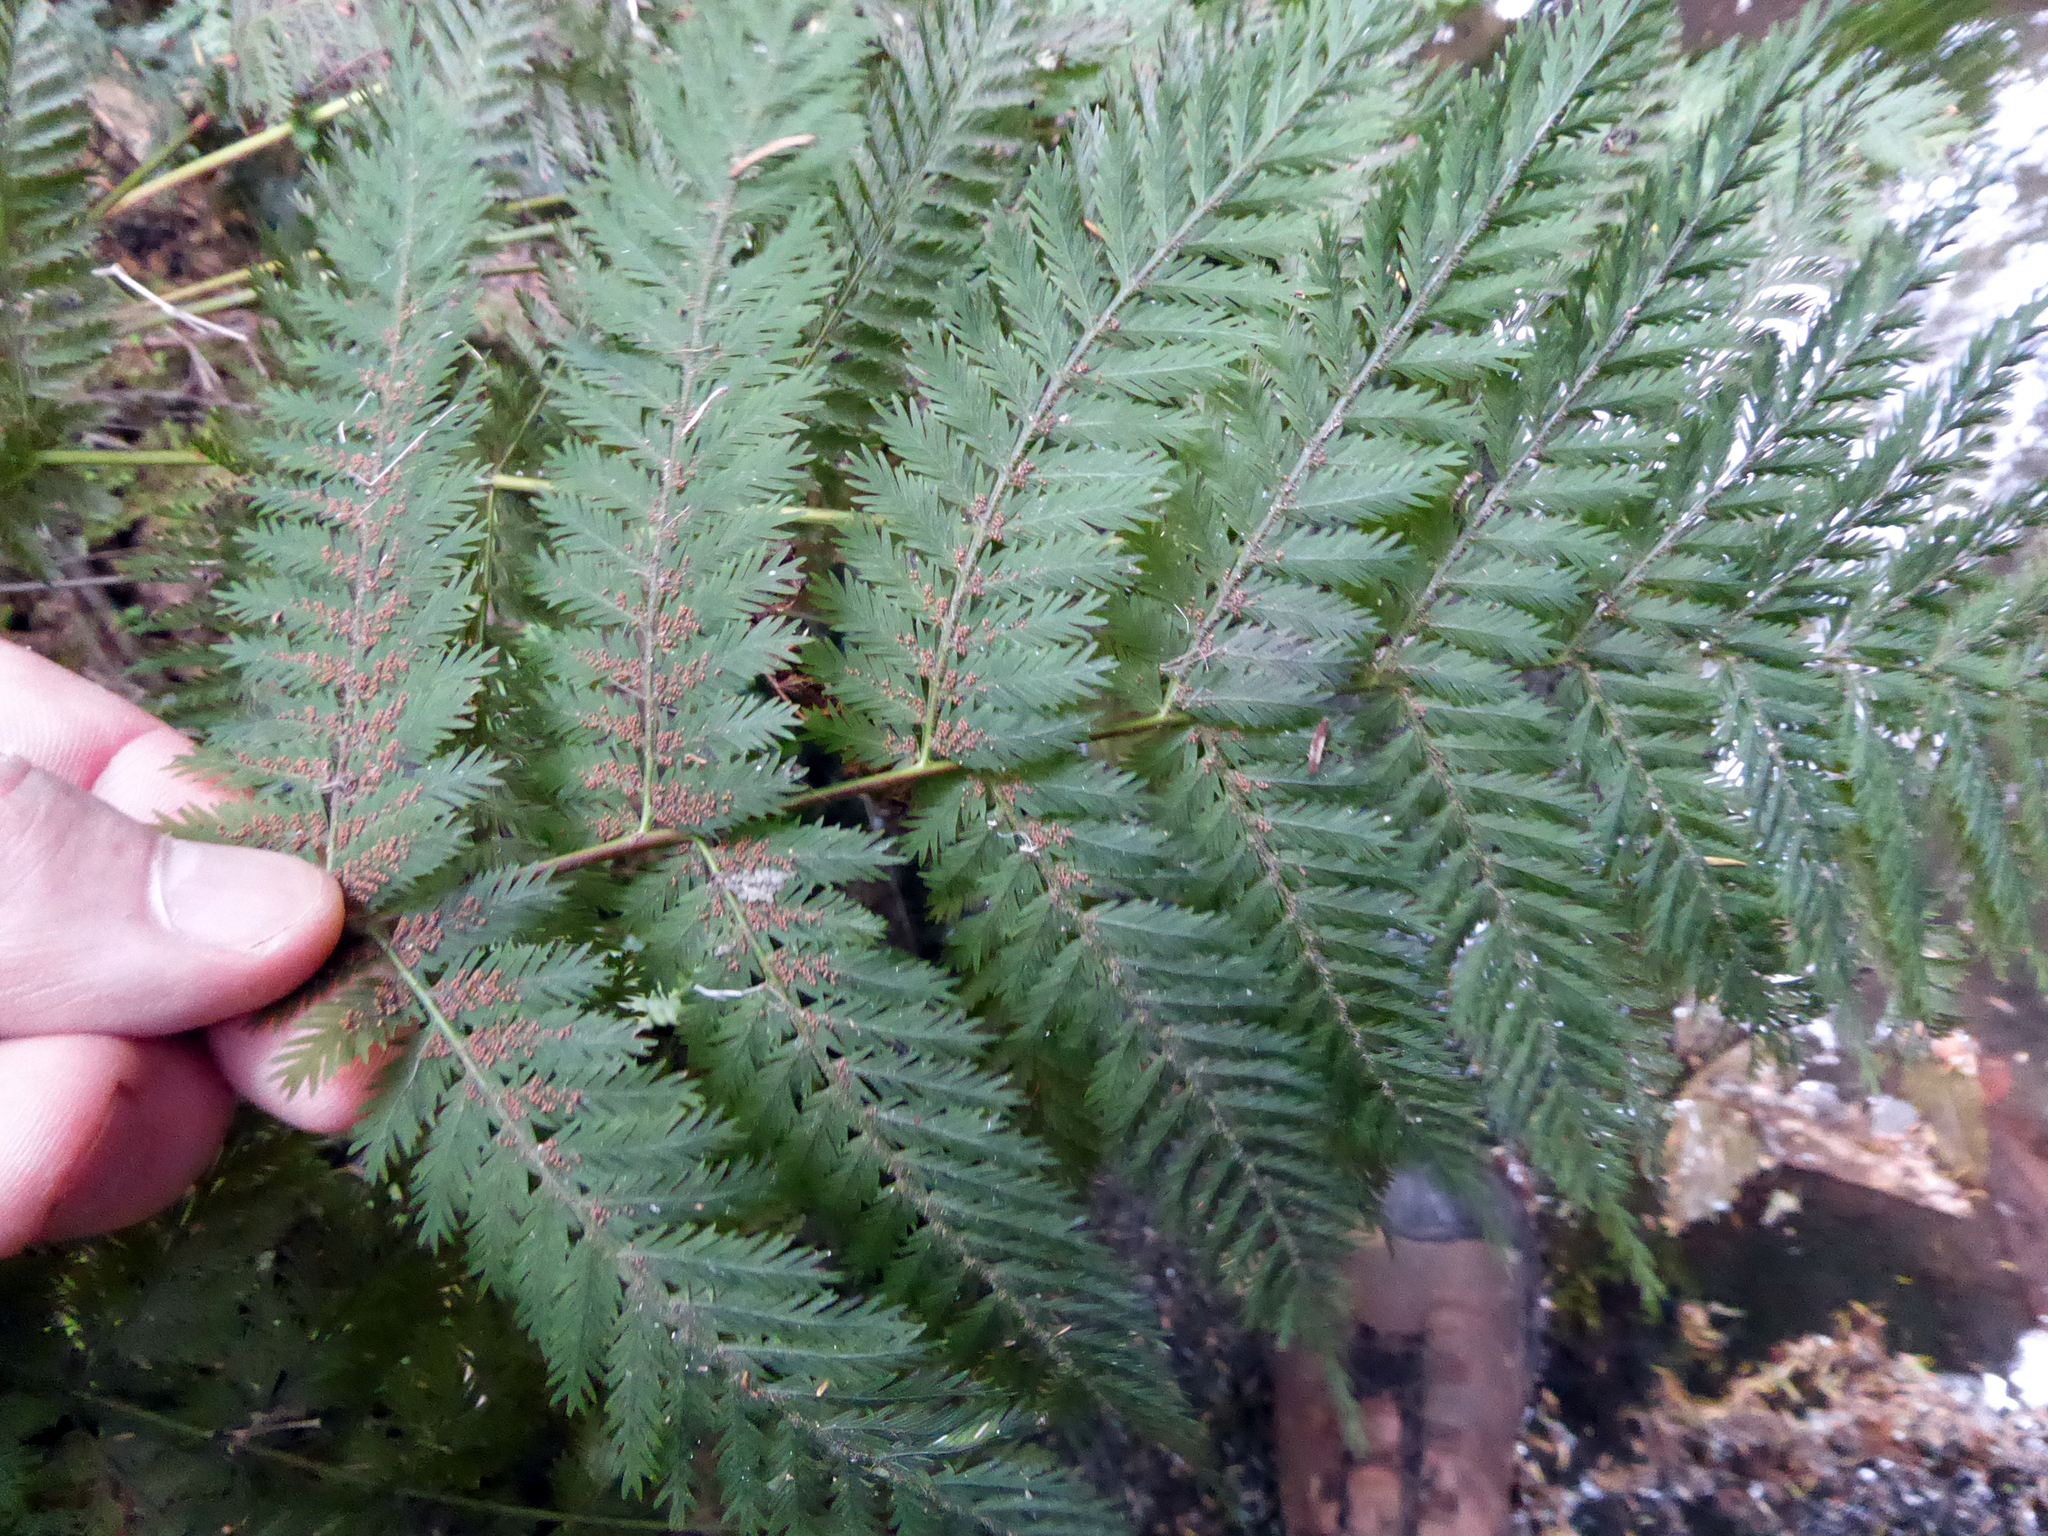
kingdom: Plantae
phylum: Tracheophyta
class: Polypodiopsida
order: Osmundales
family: Osmundaceae
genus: Leptopteris
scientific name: Leptopteris hymenophylloides
